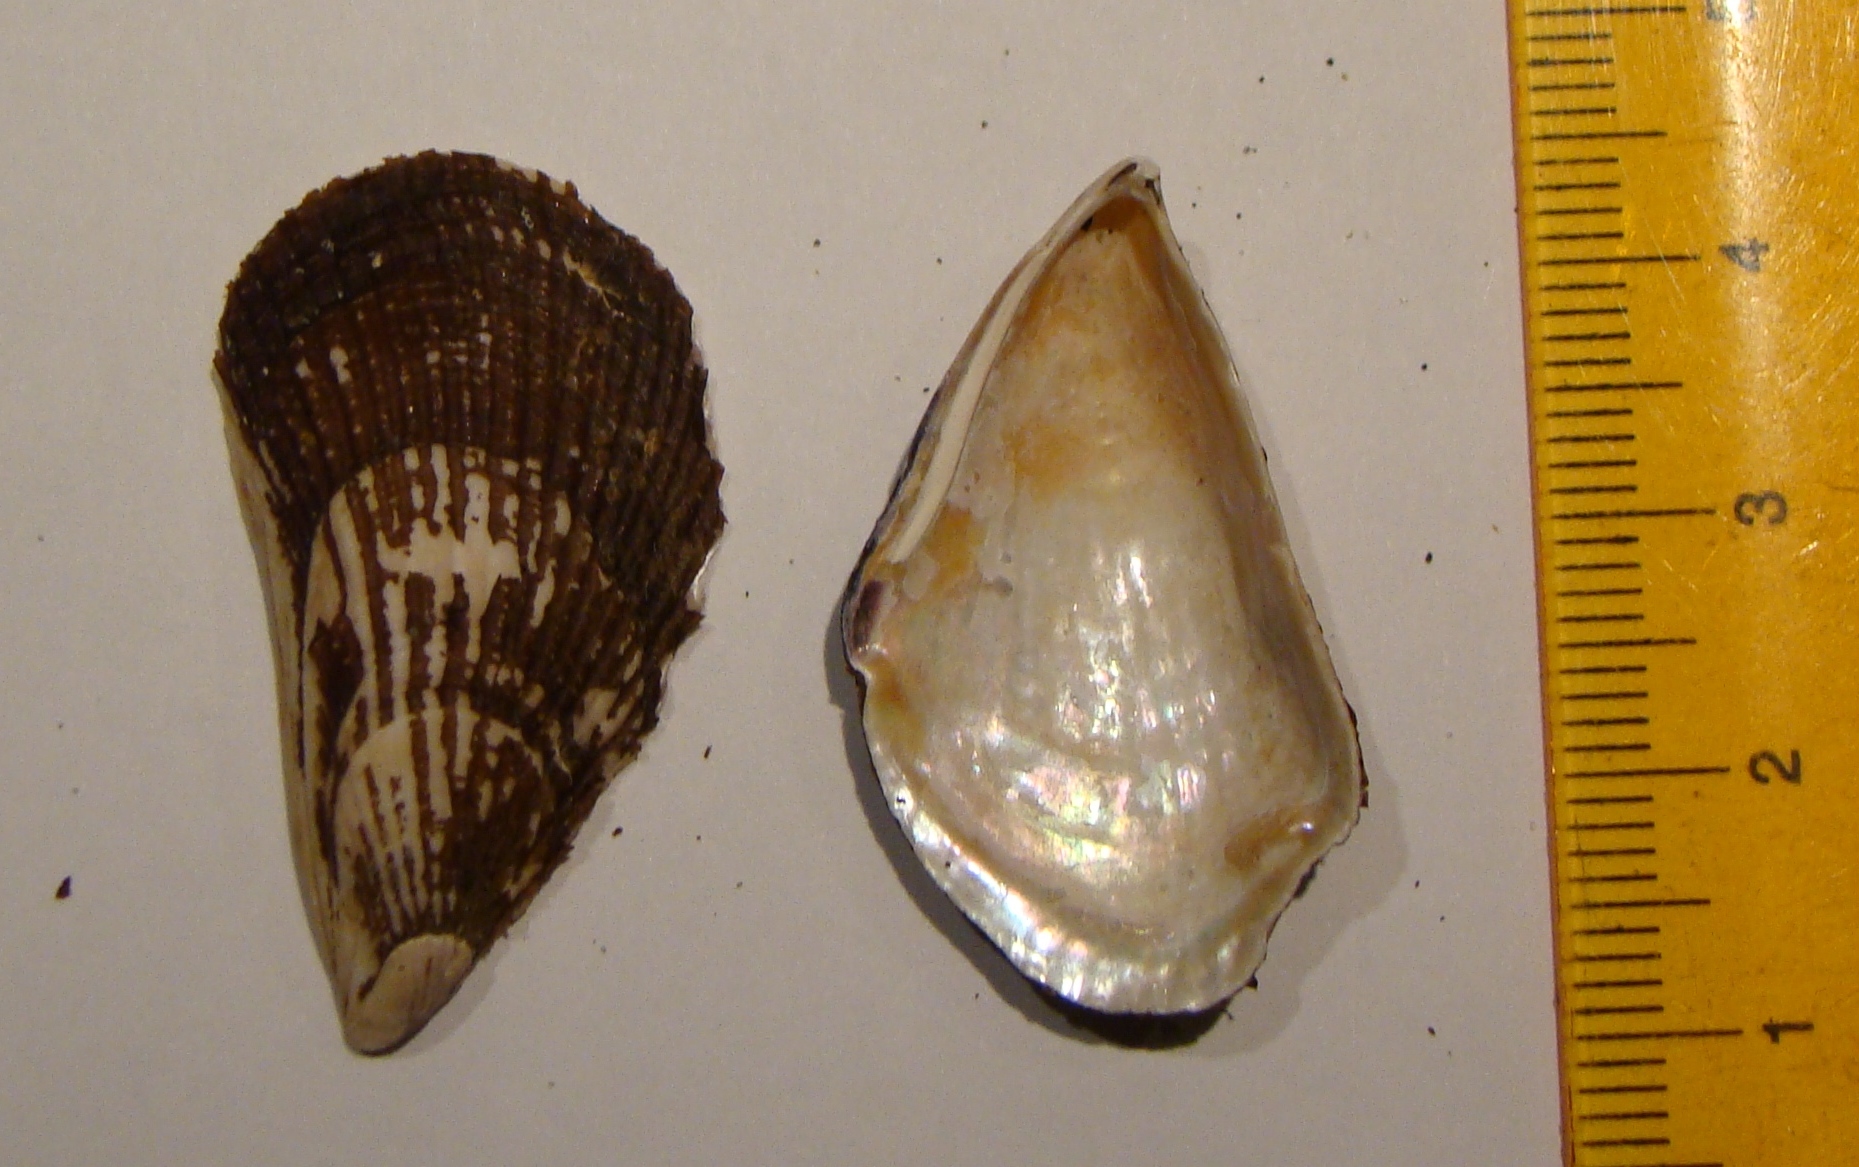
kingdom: Animalia
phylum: Mollusca
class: Bivalvia
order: Mytilida
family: Mytilidae
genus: Aulacomya
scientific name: Aulacomya maoriana
